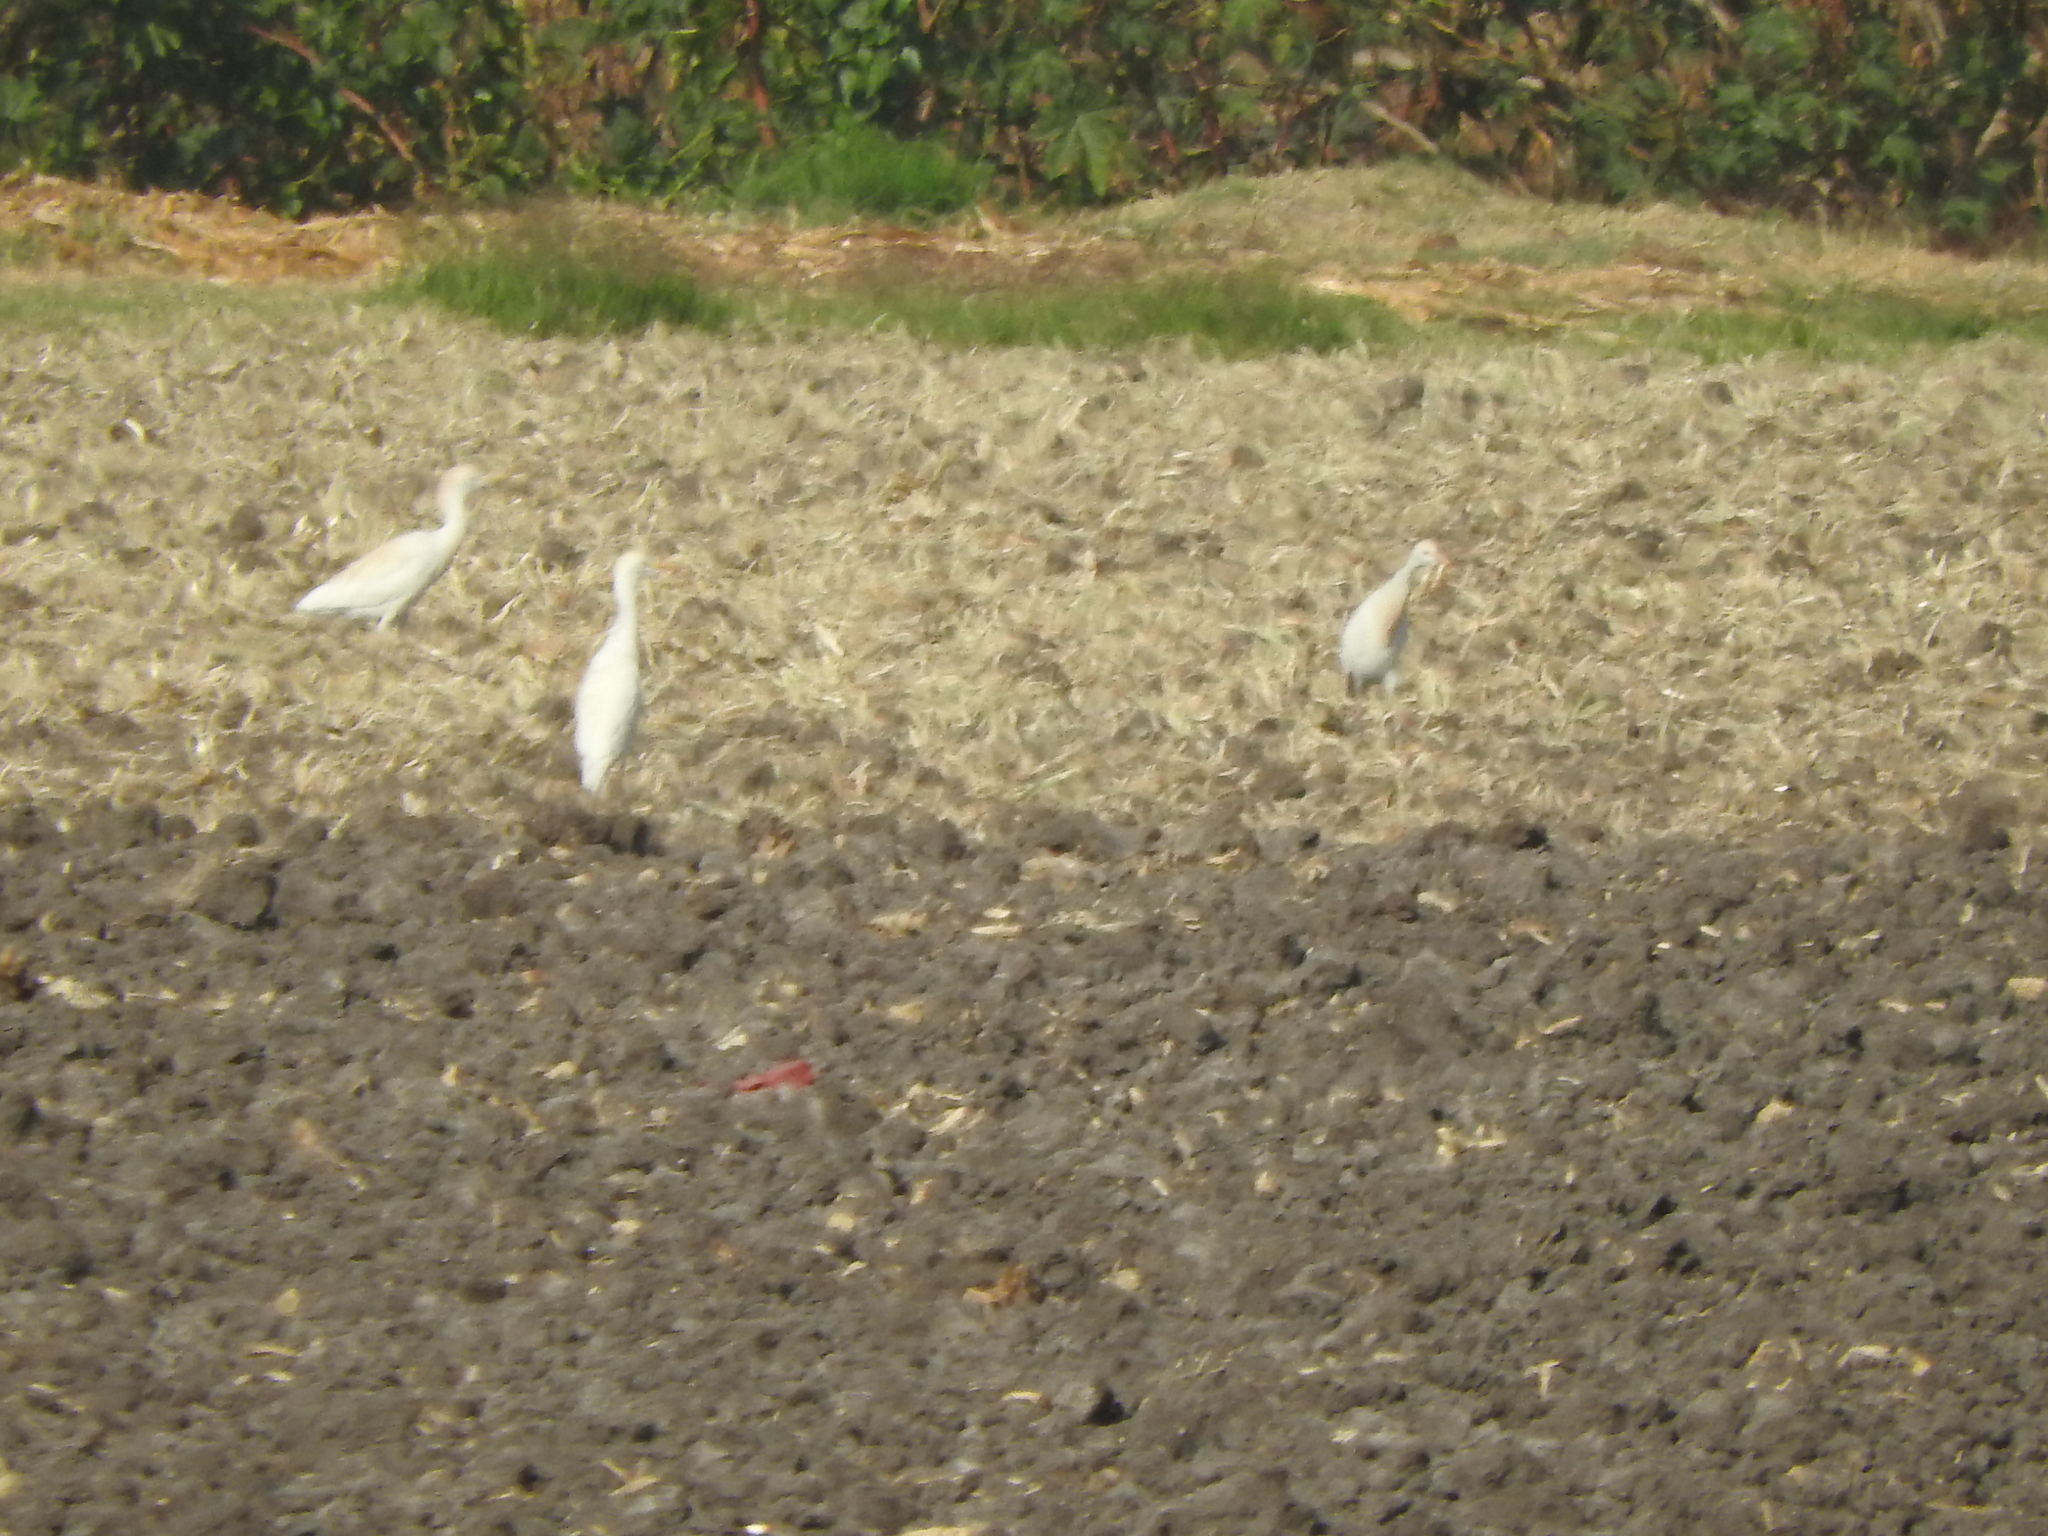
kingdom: Animalia
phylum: Chordata
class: Aves
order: Pelecaniformes
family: Ardeidae
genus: Bubulcus
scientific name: Bubulcus ibis
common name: Cattle egret
